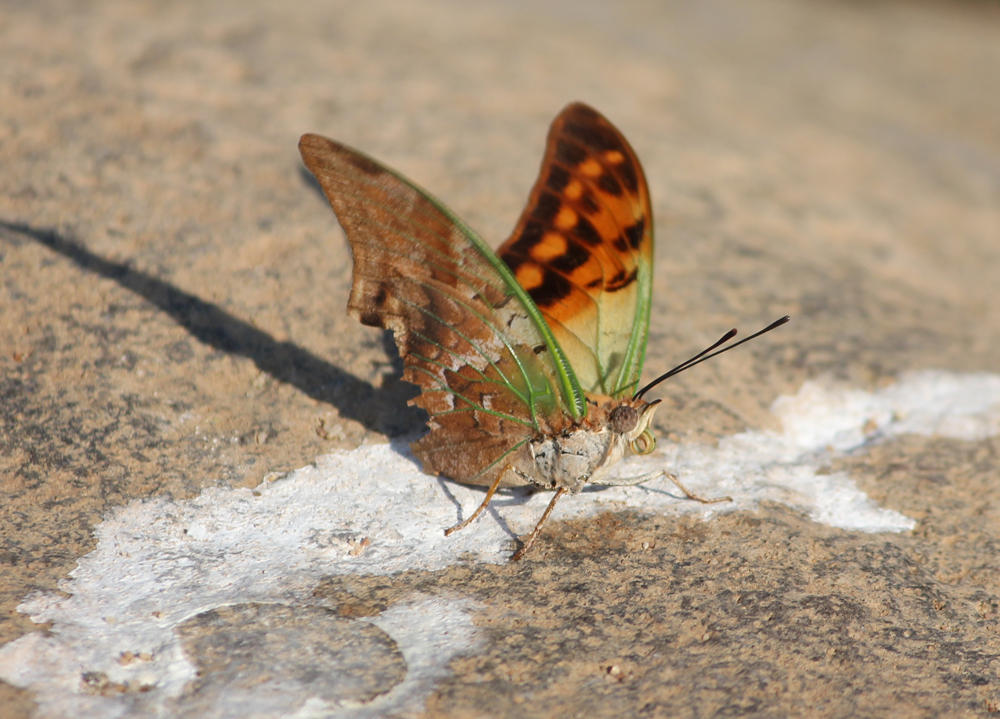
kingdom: Animalia
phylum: Arthropoda
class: Insecta
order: Lepidoptera
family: Nymphalidae
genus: Charaxes
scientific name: Charaxes candiope
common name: Green-veined charaxes
